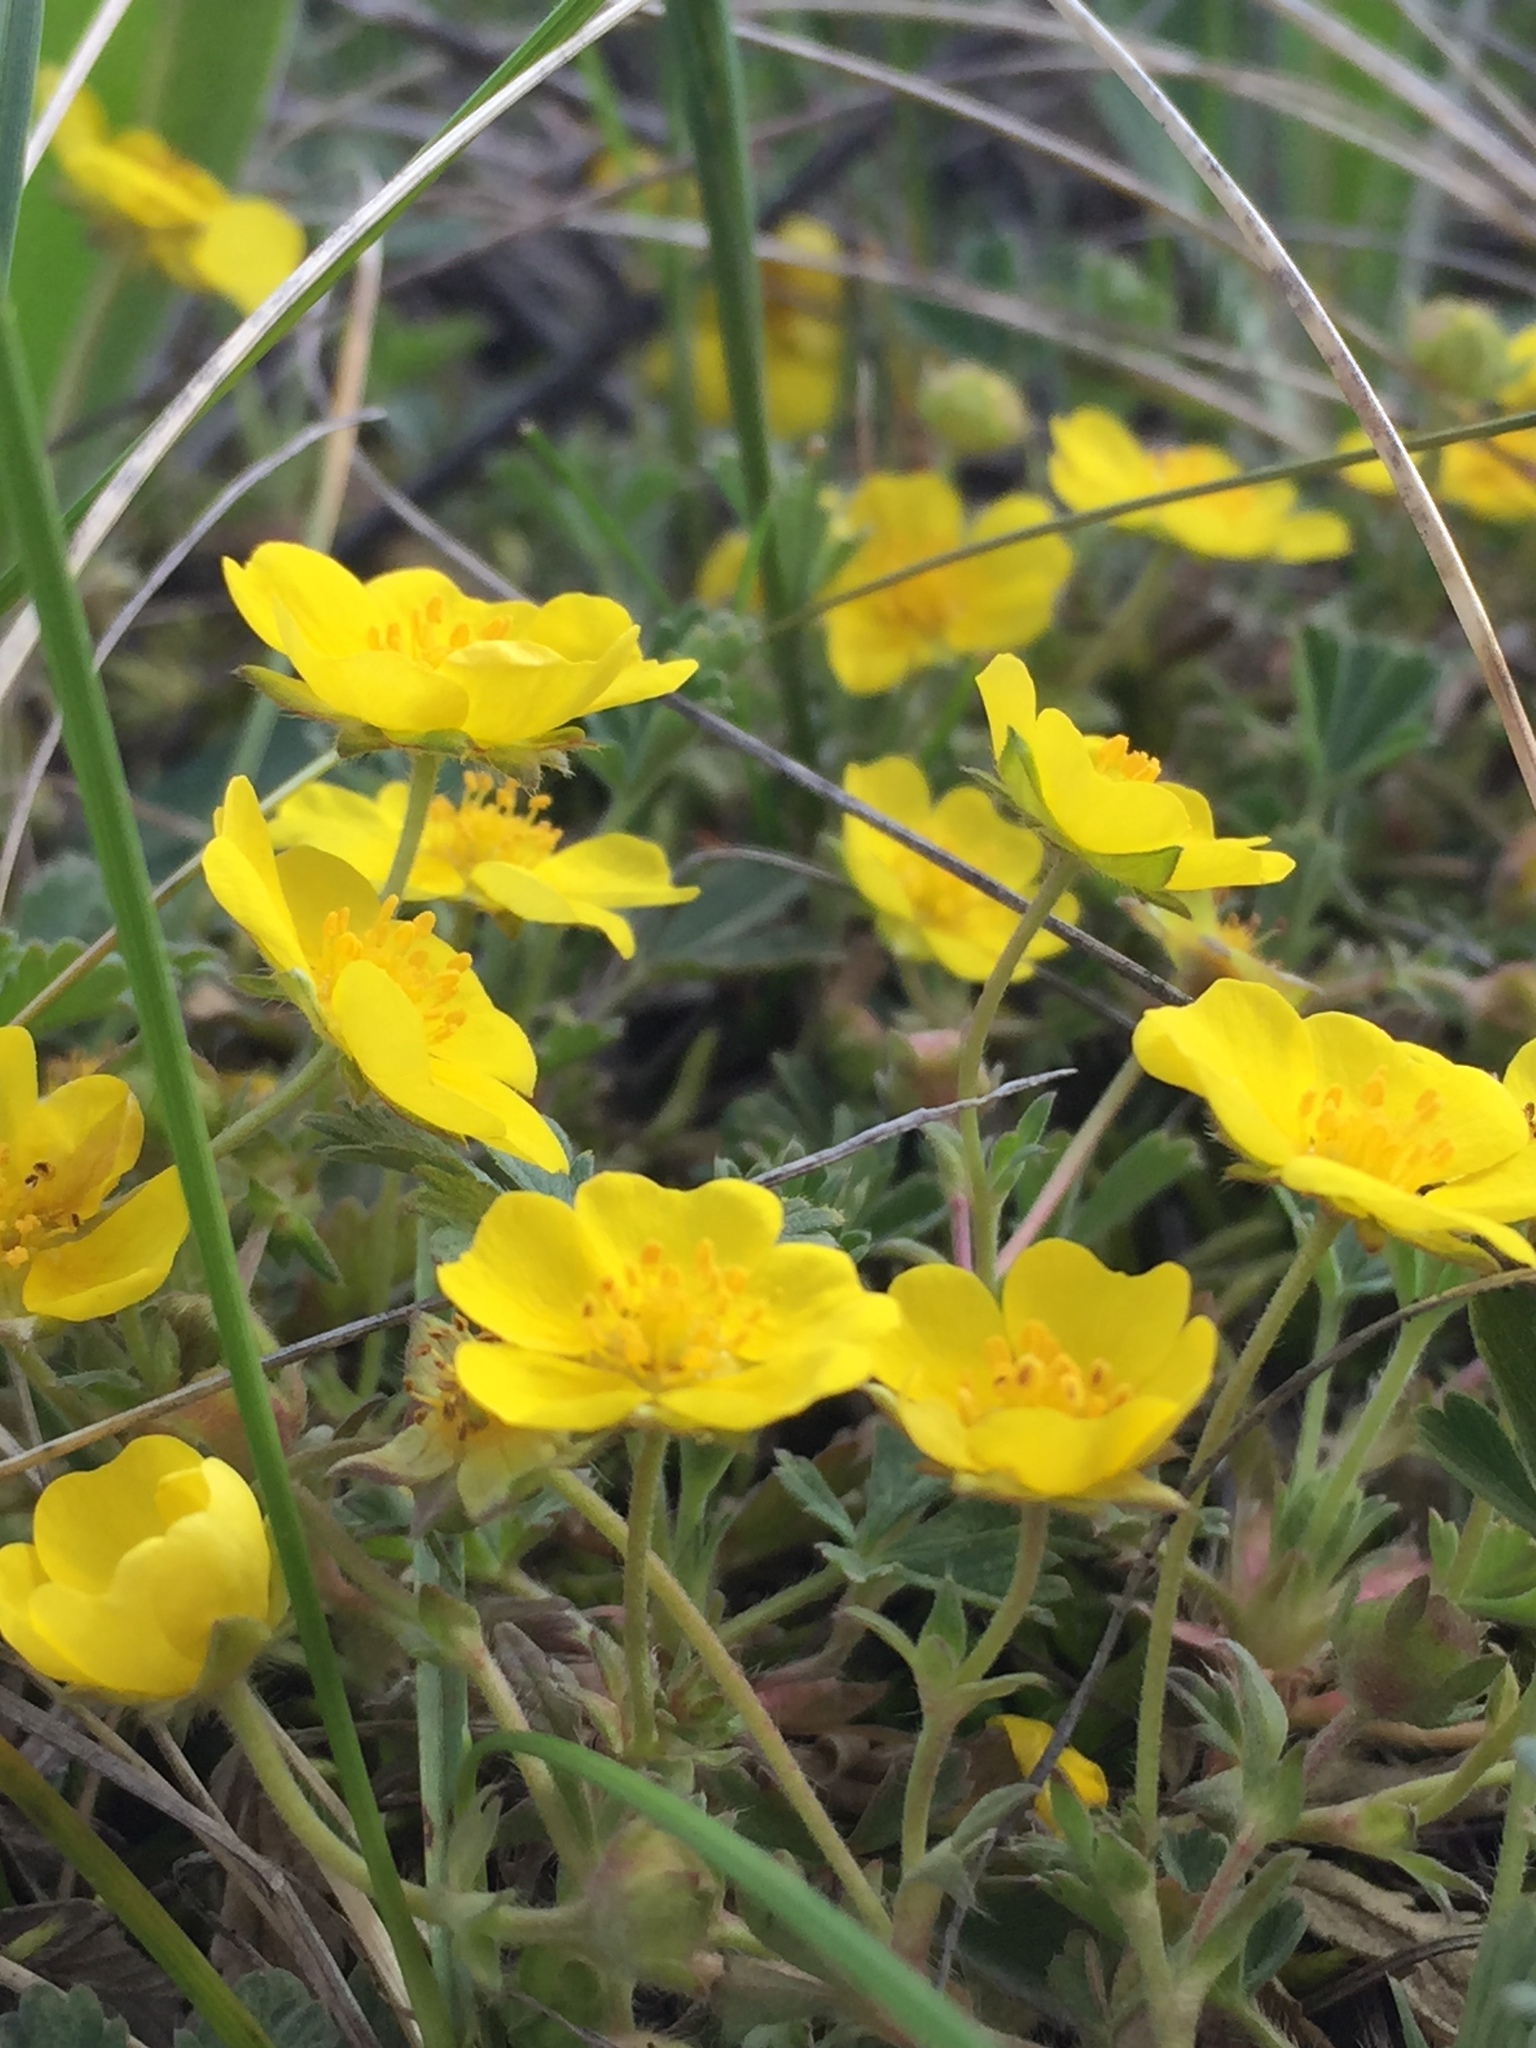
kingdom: Plantae
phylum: Tracheophyta
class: Magnoliopsida
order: Rosales
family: Rosaceae
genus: Potentilla
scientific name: Potentilla incana
